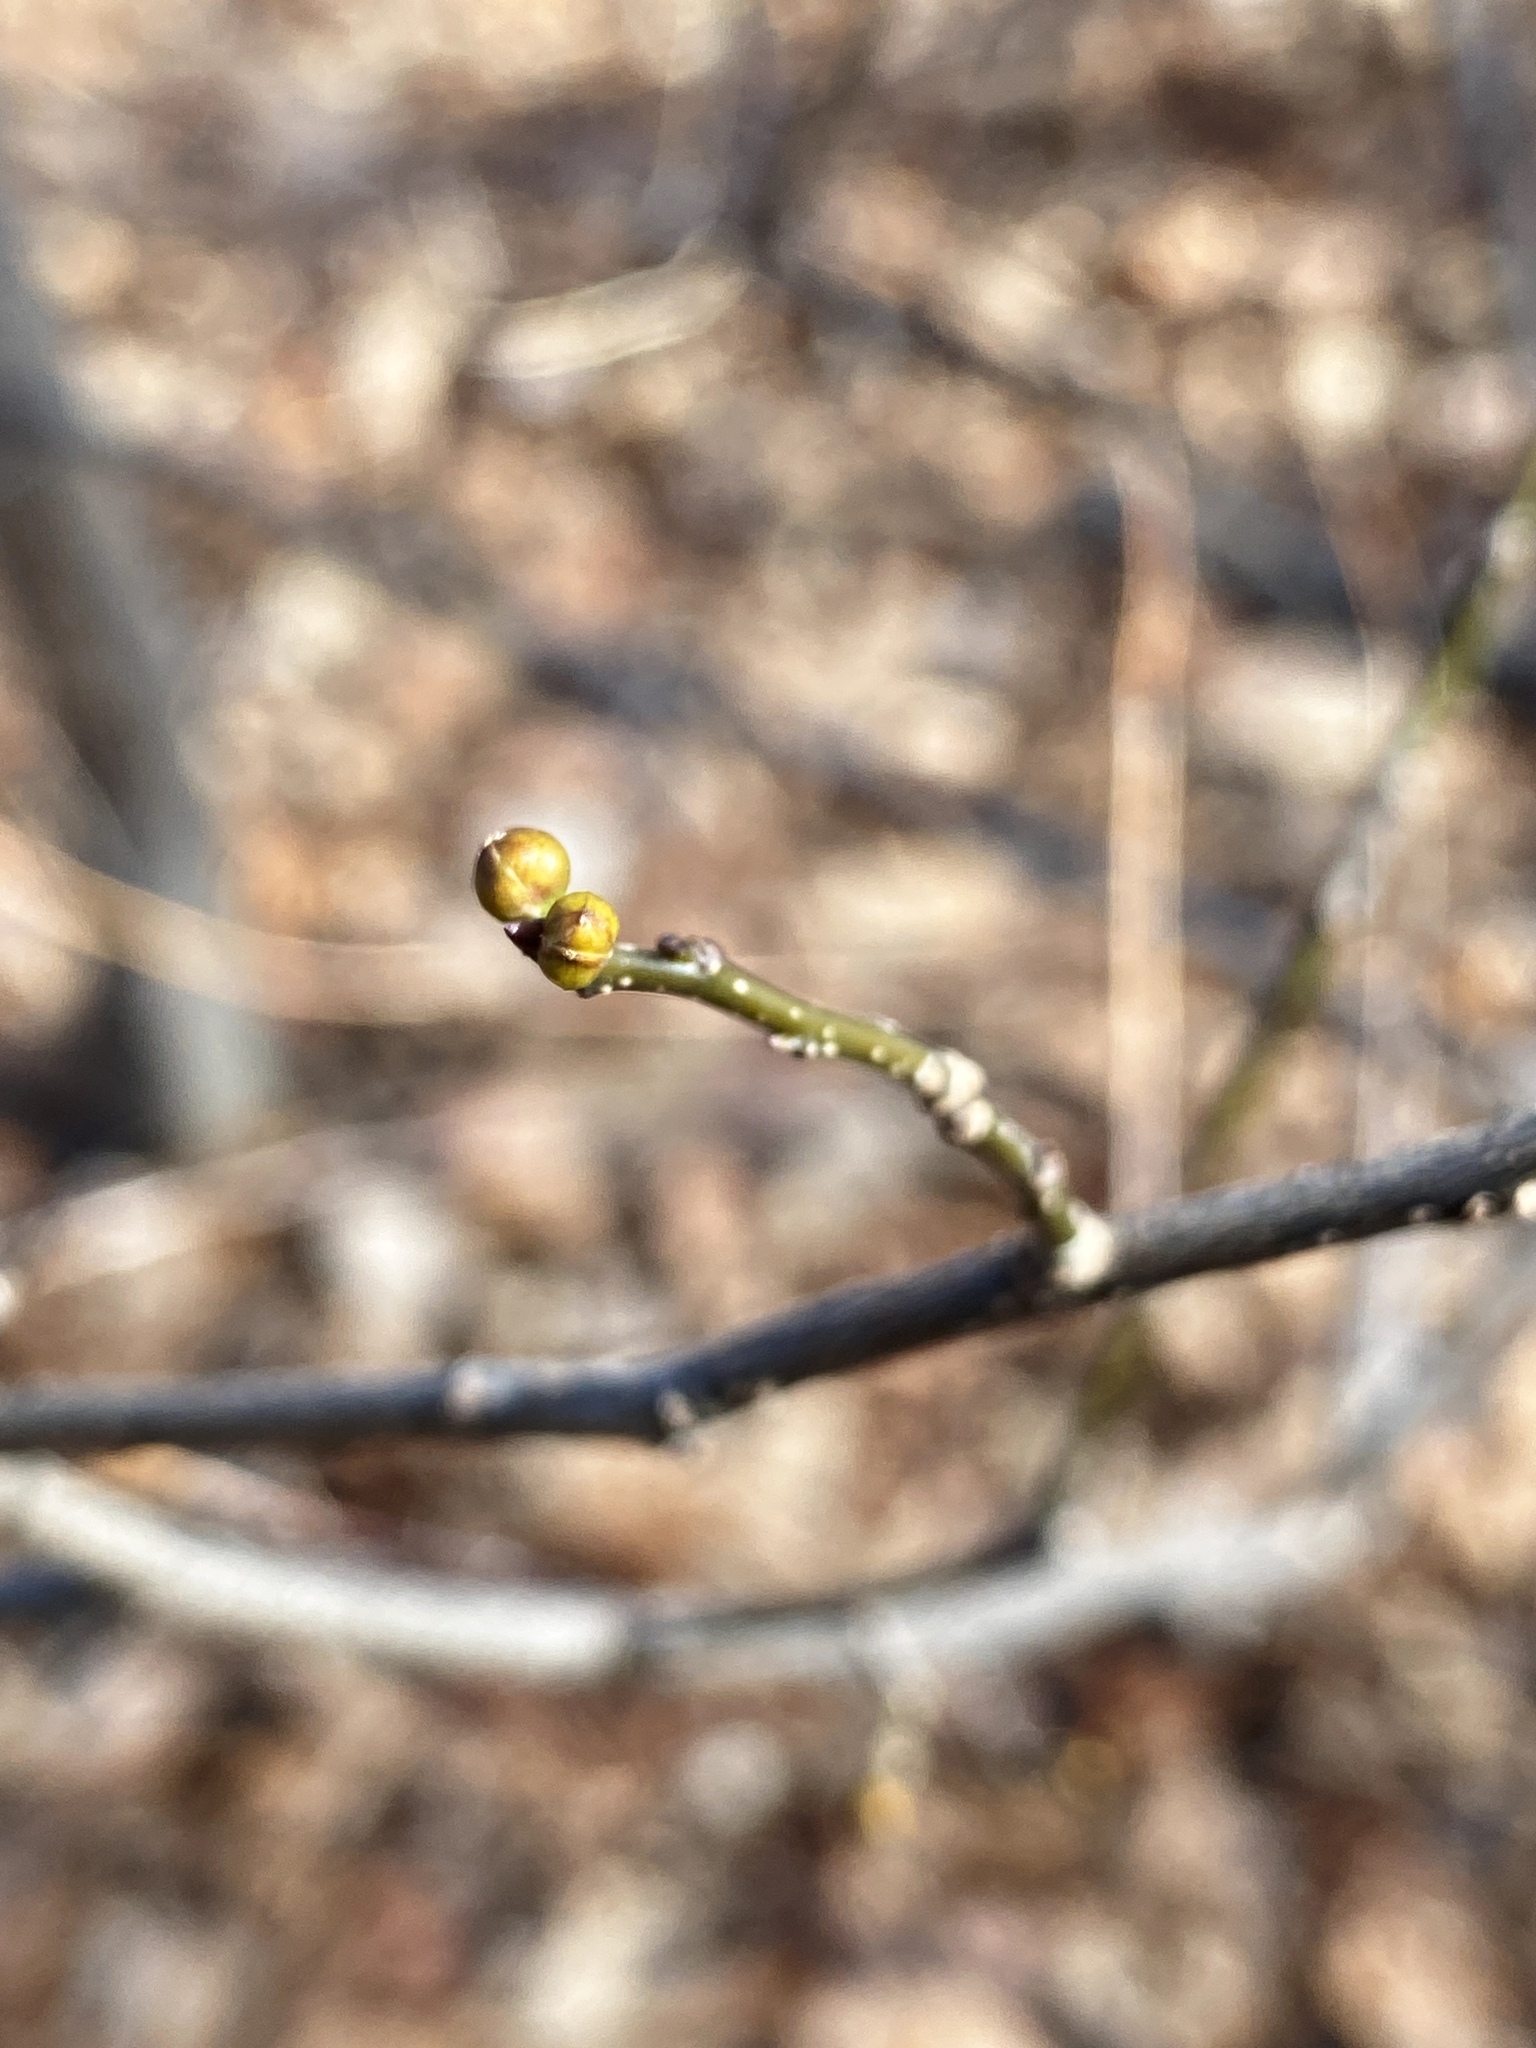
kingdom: Plantae
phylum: Tracheophyta
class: Magnoliopsida
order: Laurales
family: Lauraceae
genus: Lindera
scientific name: Lindera benzoin
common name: Spicebush
